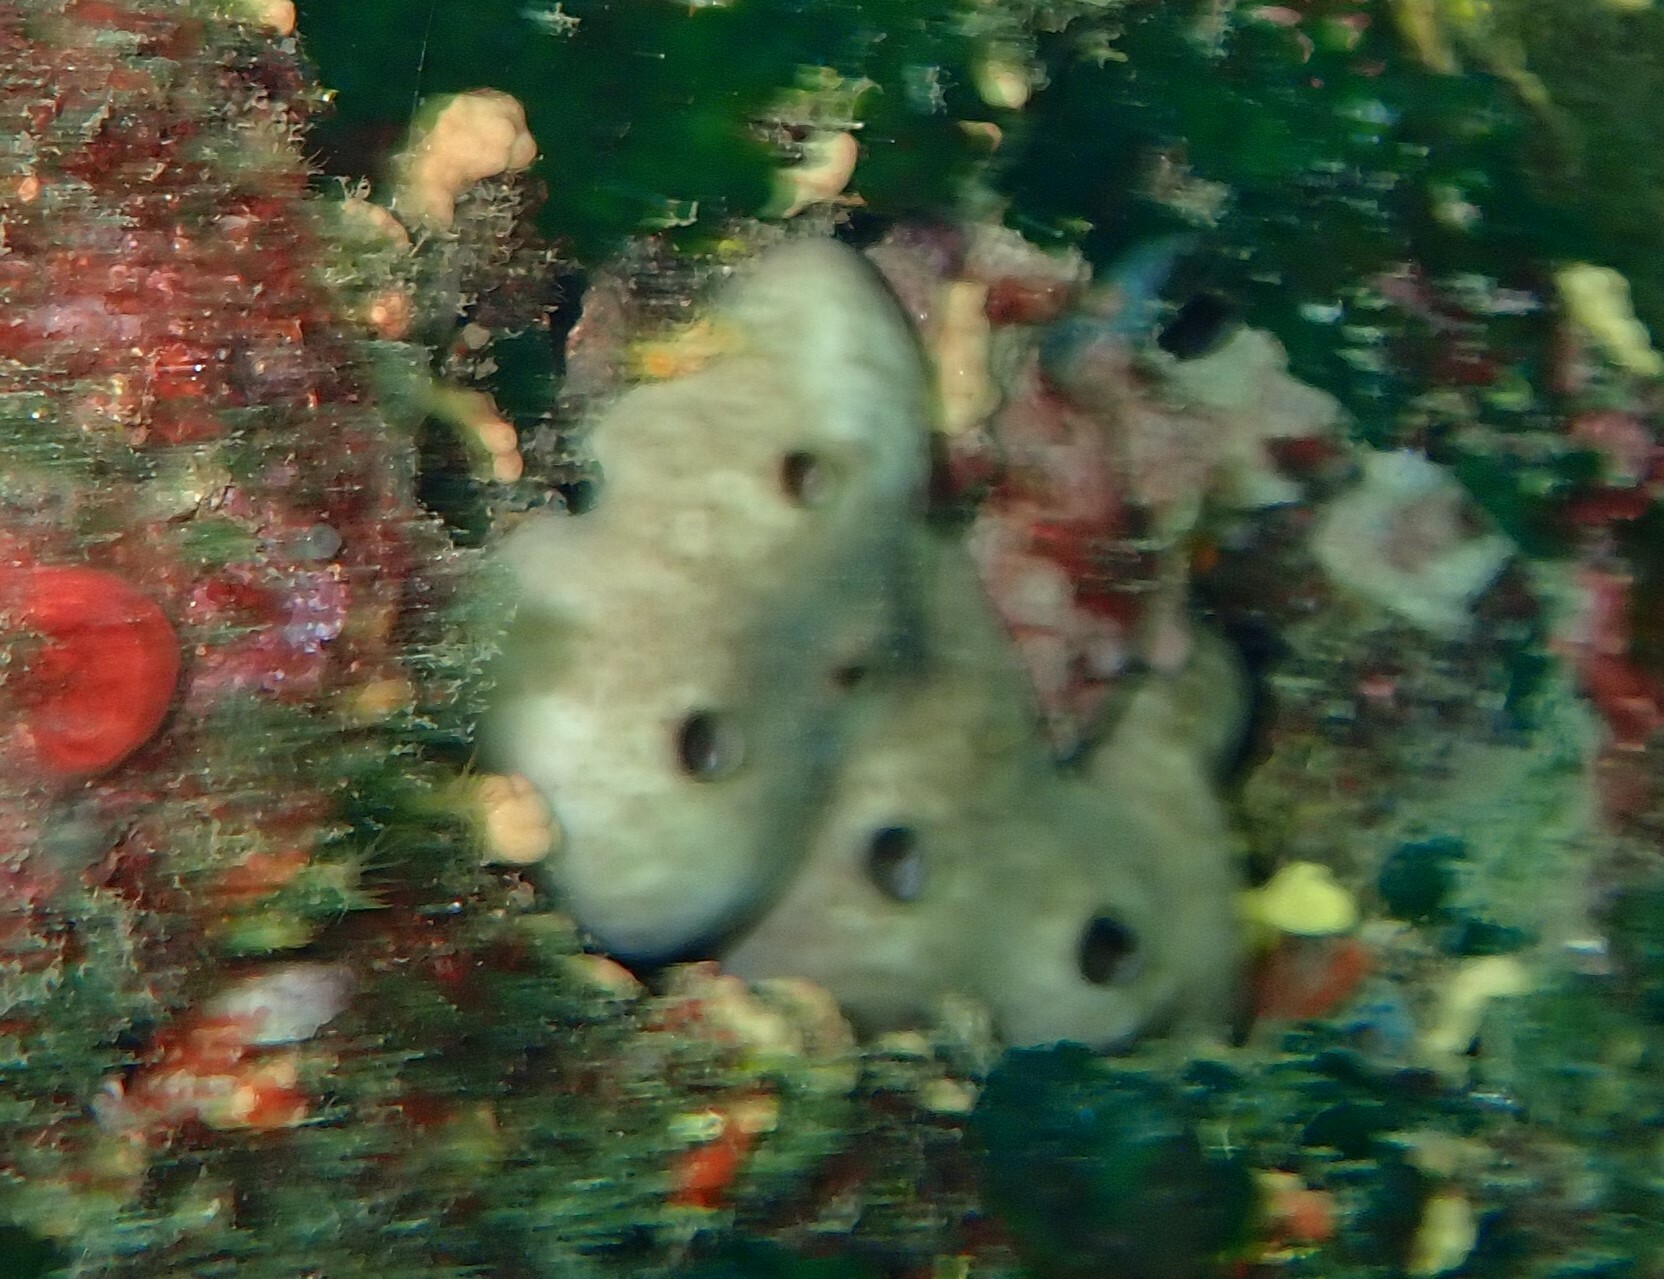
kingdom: Animalia
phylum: Porifera
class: Demospongiae
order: Chondrosiida
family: Chondrosiidae
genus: Chondrosia
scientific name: Chondrosia reniformis
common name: Chicken liver sponge
